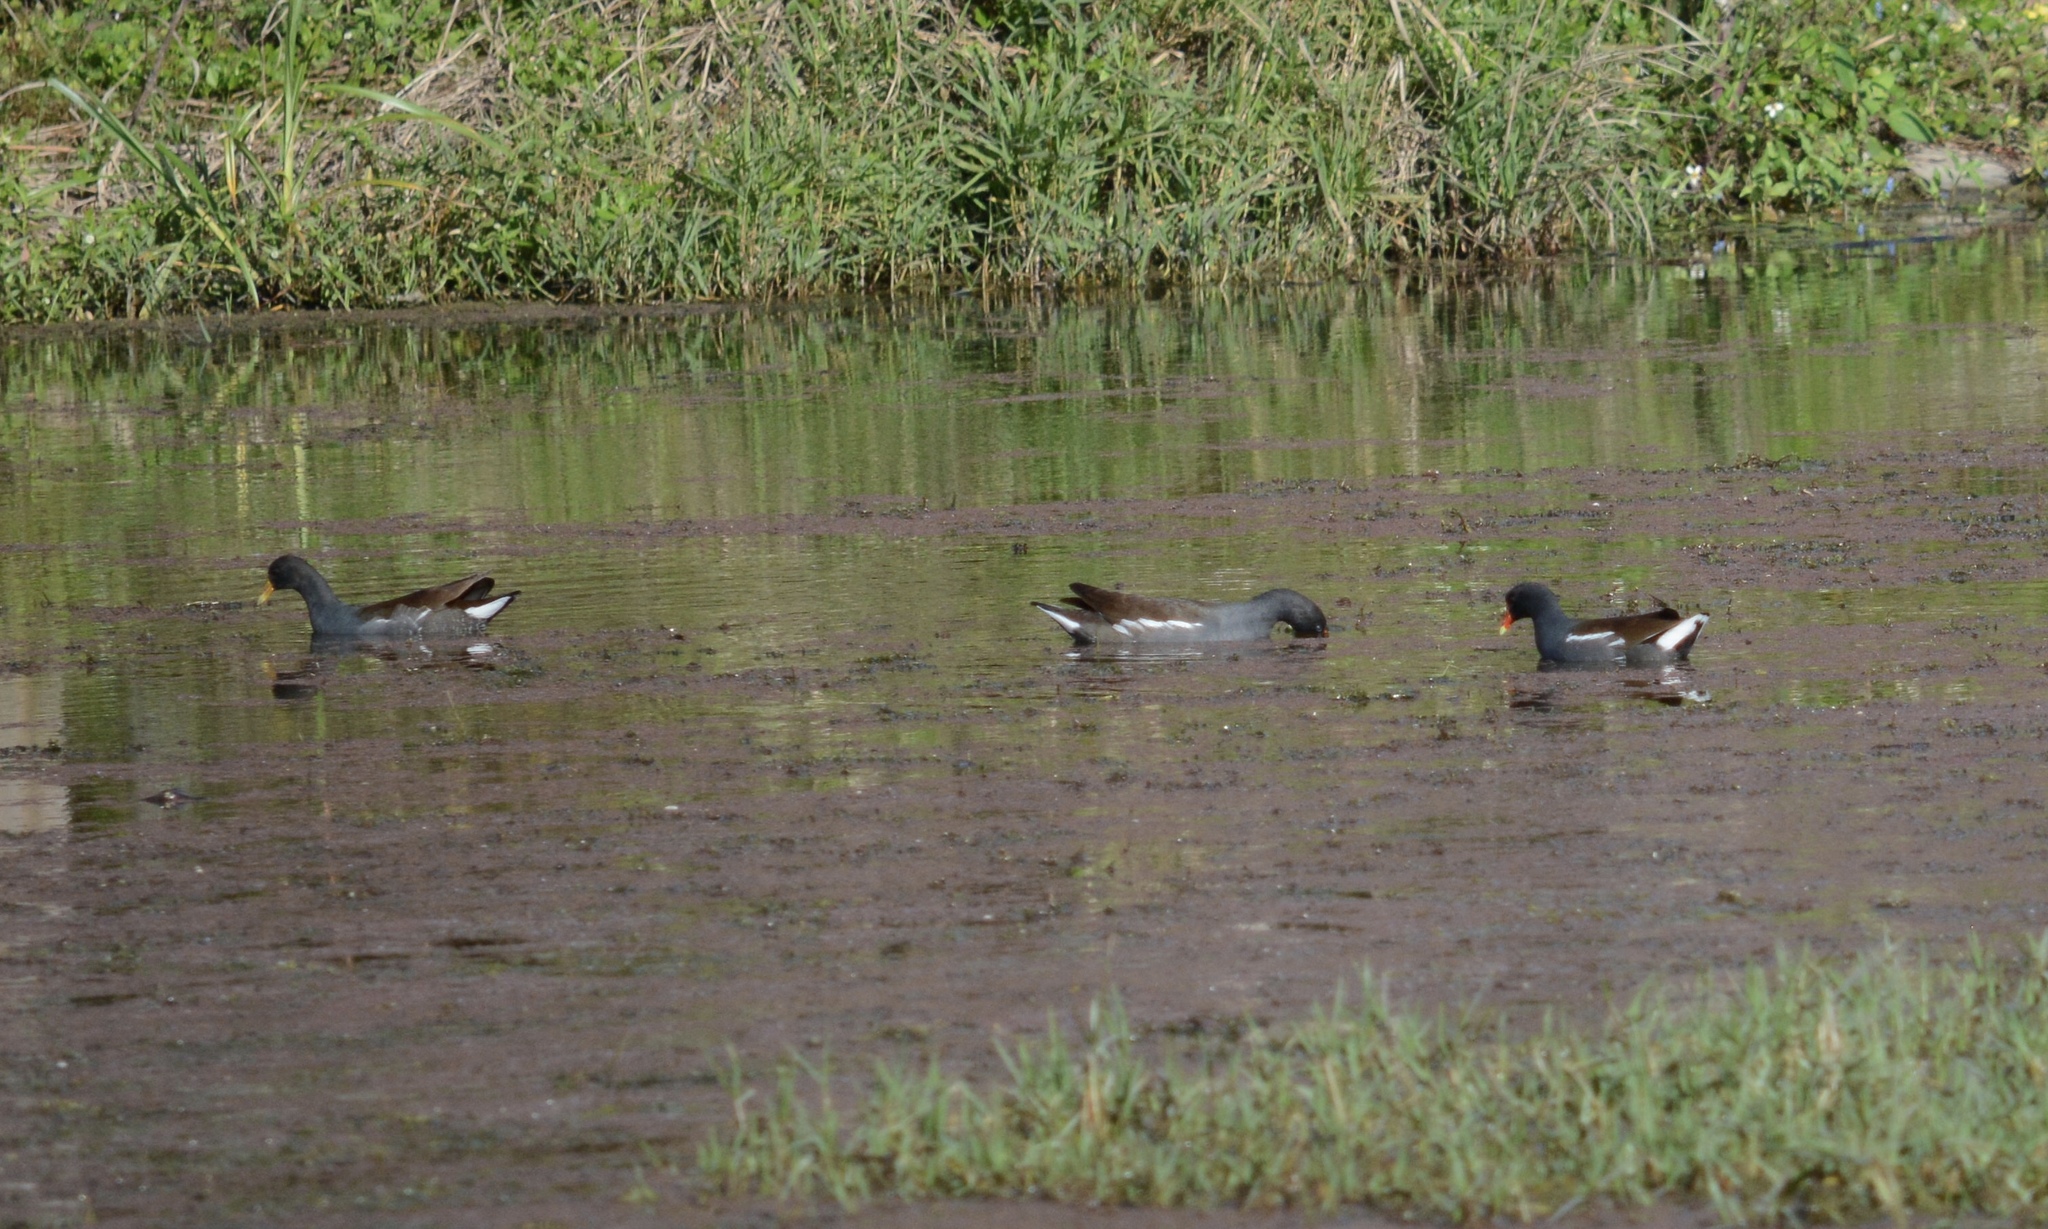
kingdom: Animalia
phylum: Chordata
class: Aves
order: Gruiformes
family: Rallidae
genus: Gallinula
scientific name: Gallinula chloropus
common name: Common moorhen
